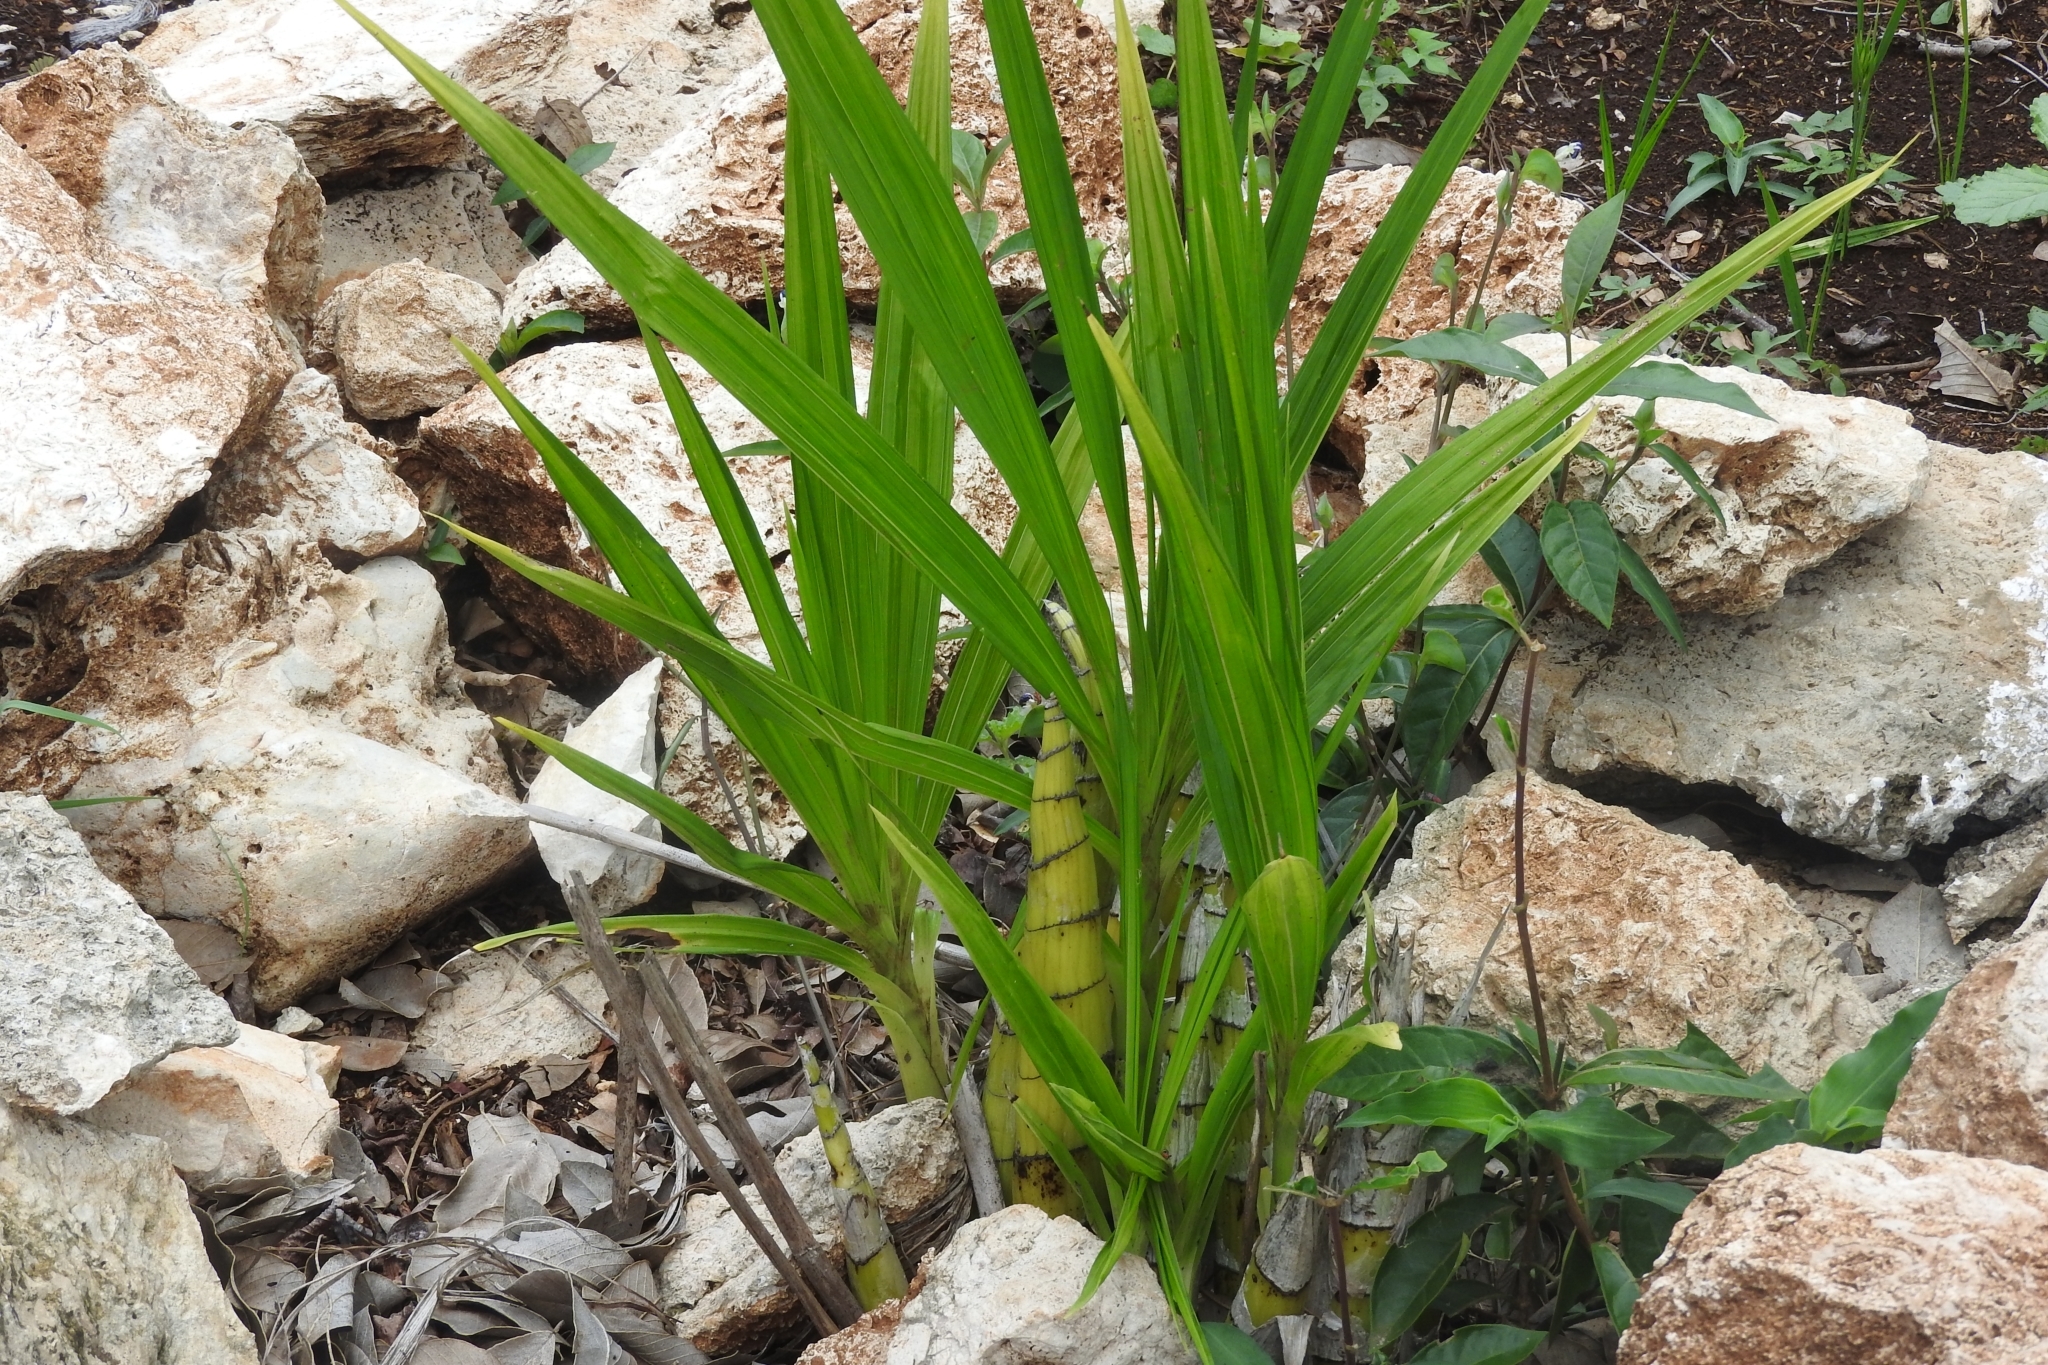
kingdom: Plantae
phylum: Tracheophyta
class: Liliopsida
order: Asparagales
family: Orchidaceae
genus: Cyrtopodium
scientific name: Cyrtopodium macrobulbon
